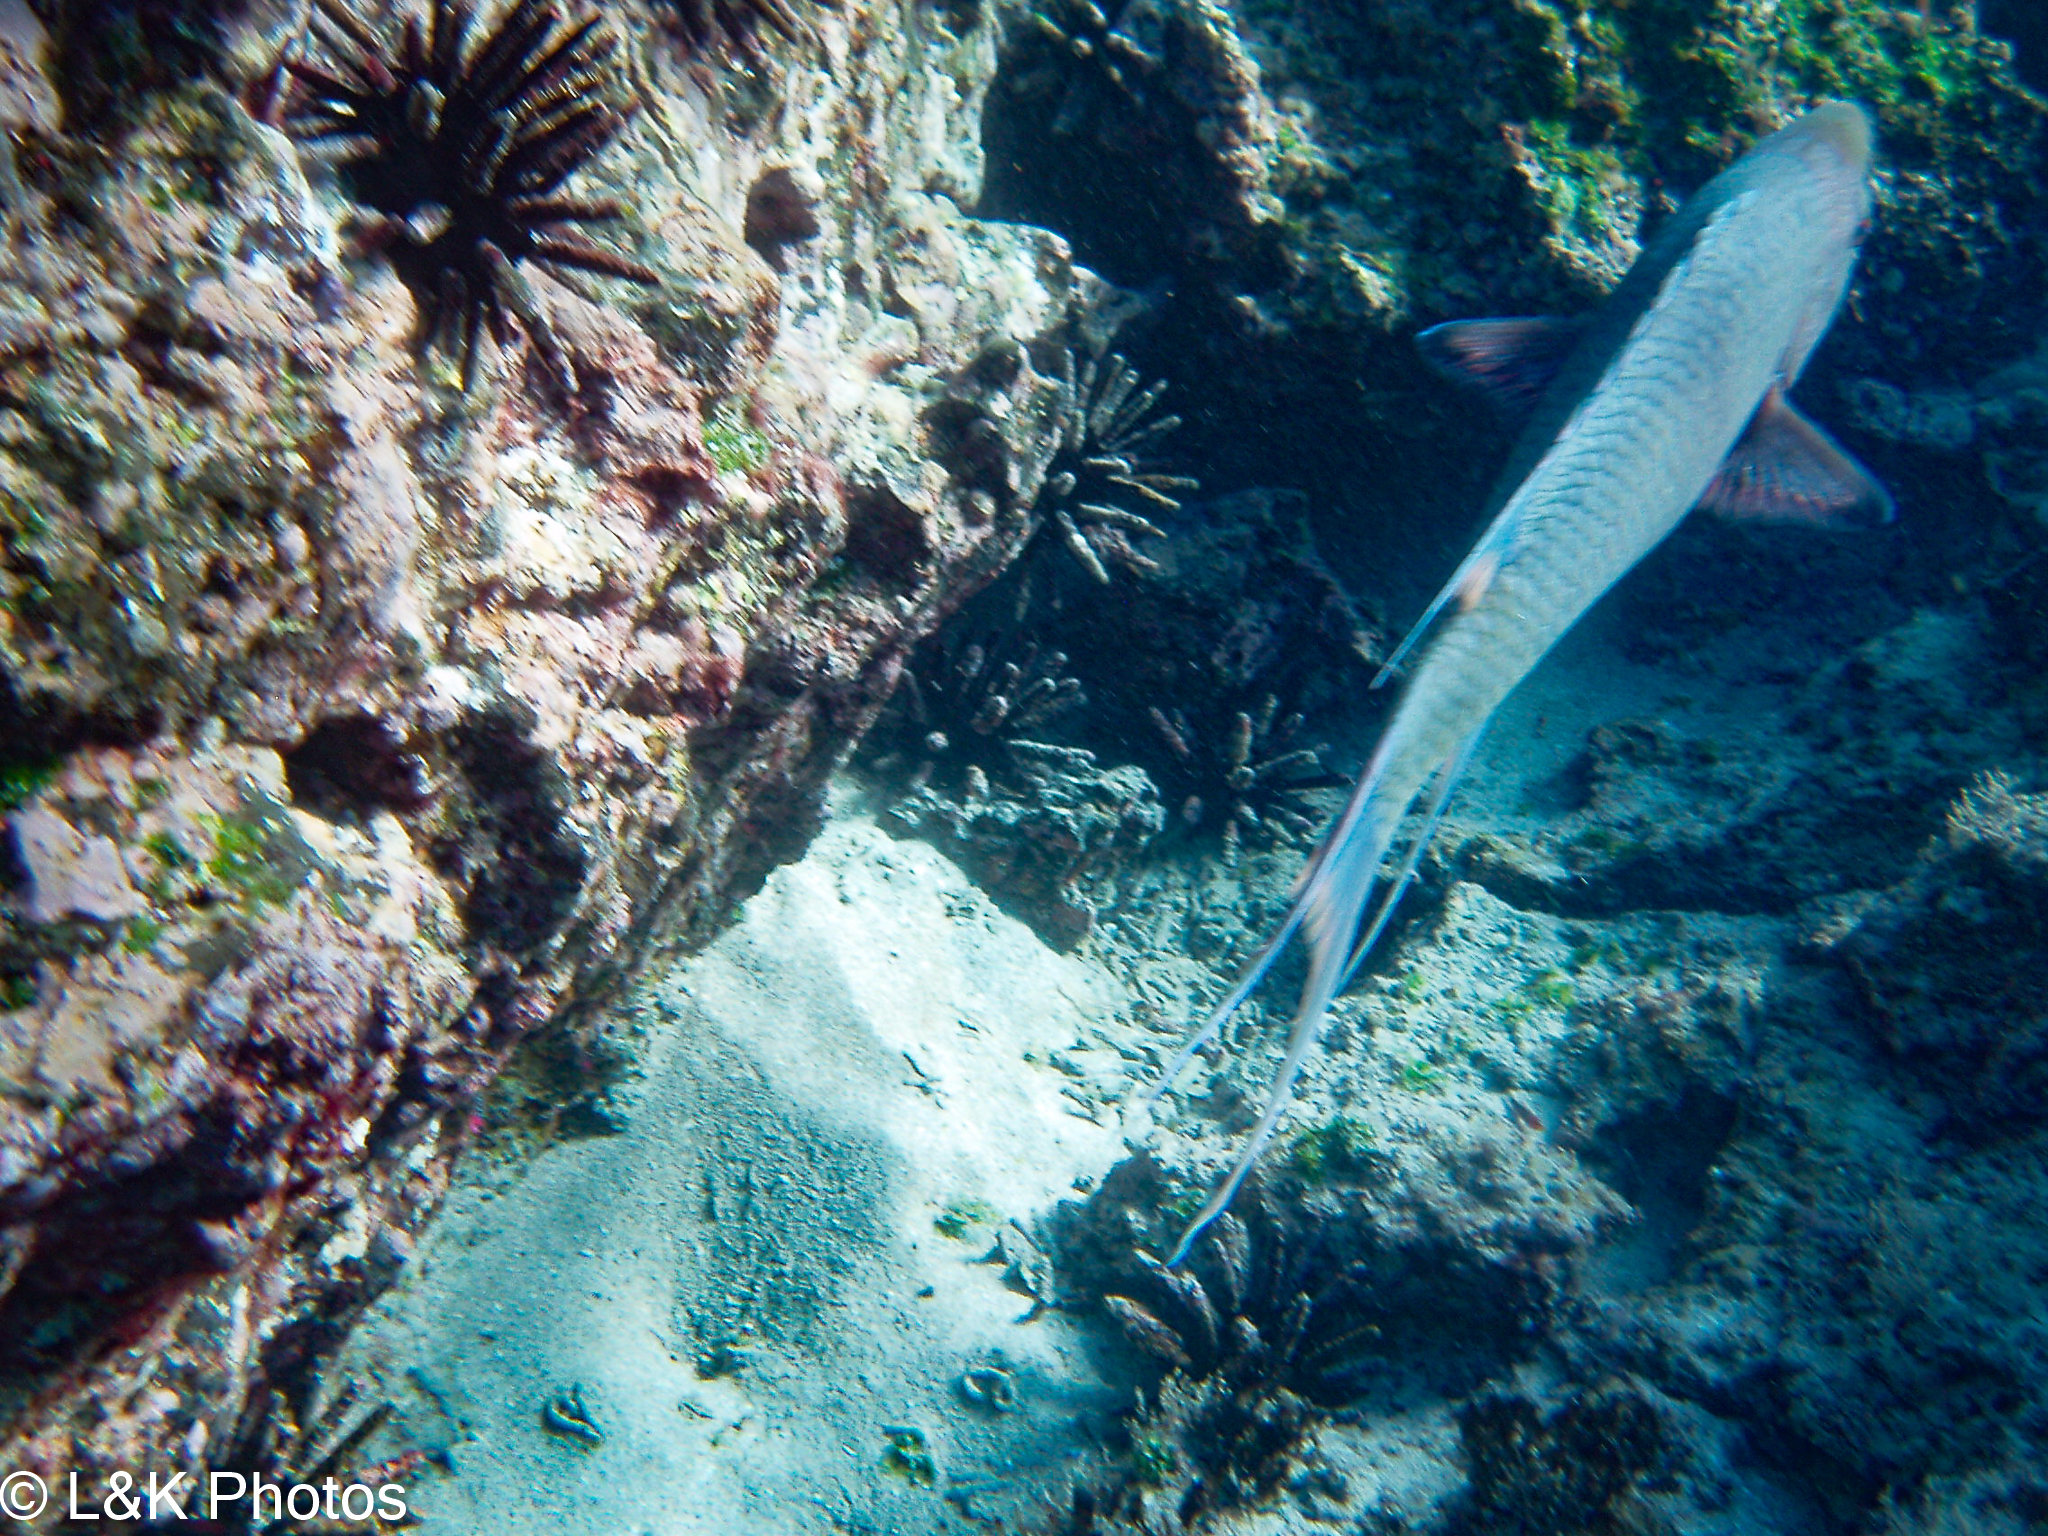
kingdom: Animalia
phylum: Chordata
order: Perciformes
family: Labridae
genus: Bodianus
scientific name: Bodianus diplotaenia
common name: Mexican hogfish
